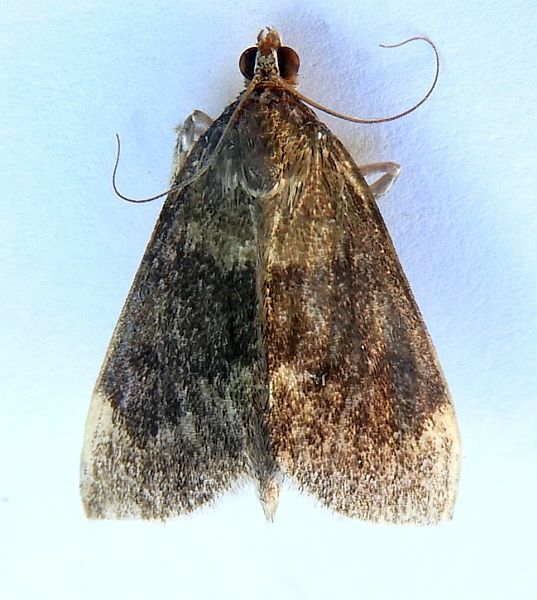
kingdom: Animalia
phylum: Arthropoda
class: Insecta
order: Lepidoptera
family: Crambidae
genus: Pyrausta
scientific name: Pyrausta niveicilialis
